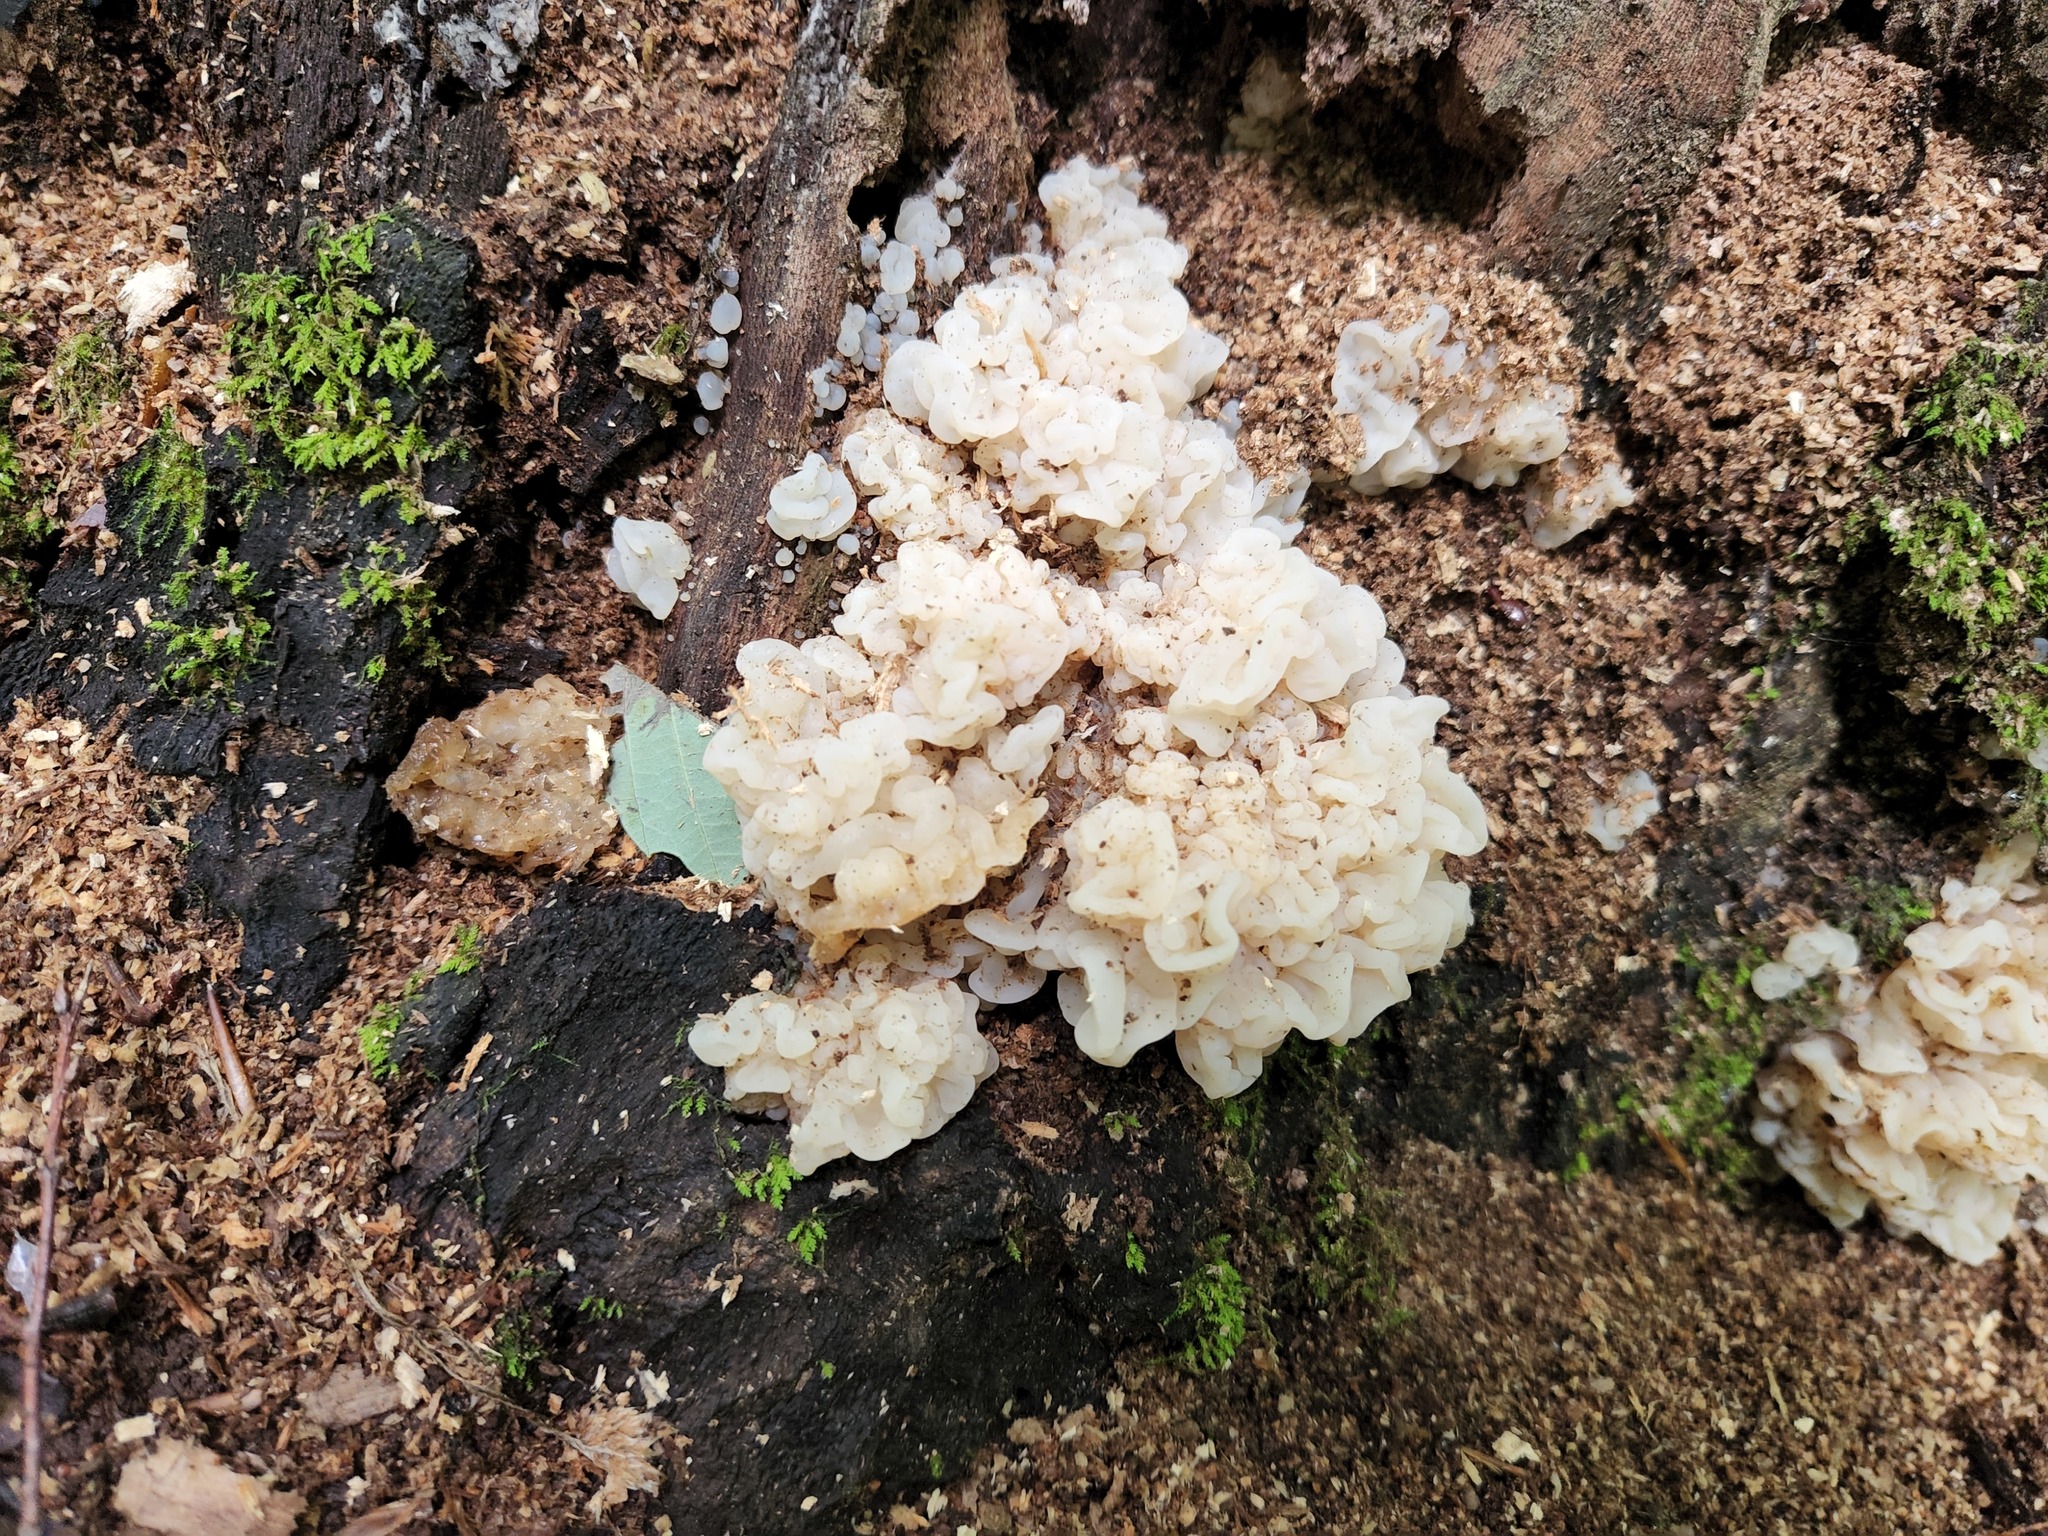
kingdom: Fungi
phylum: Basidiomycota
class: Agaricomycetes
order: Auriculariales
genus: Ductifera
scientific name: Ductifera pululahuana
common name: White jelly fungus
